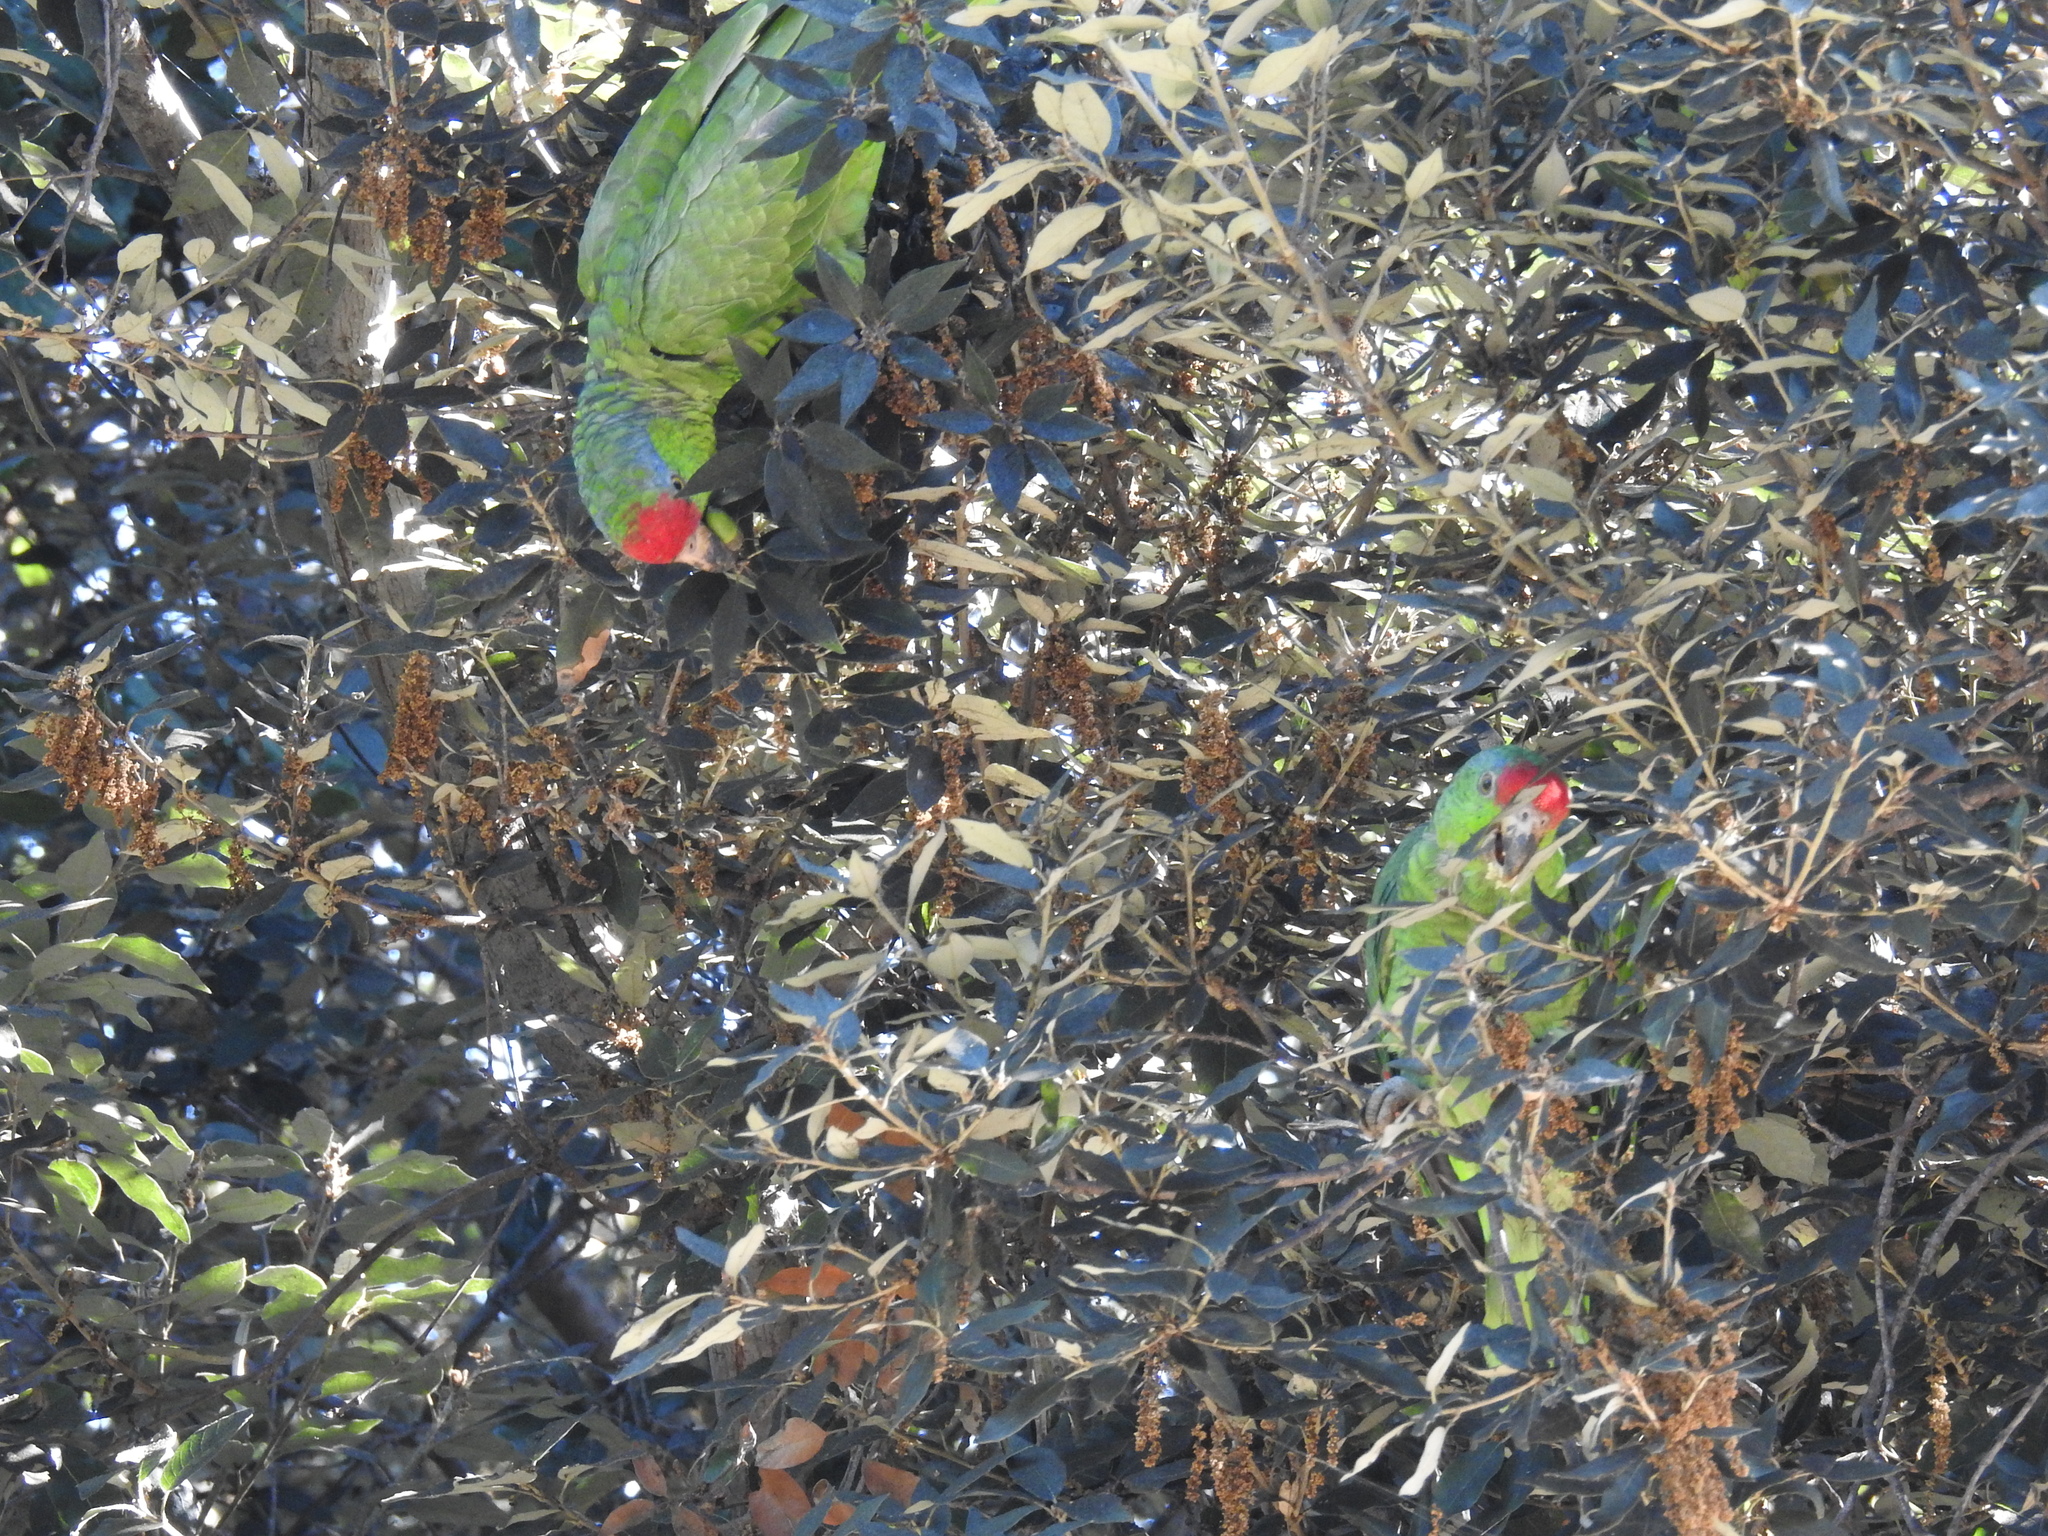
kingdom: Animalia
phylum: Chordata
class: Aves
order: Psittaciformes
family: Psittacidae
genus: Amazona
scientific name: Amazona viridigenalis
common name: Red-crowned amazon
